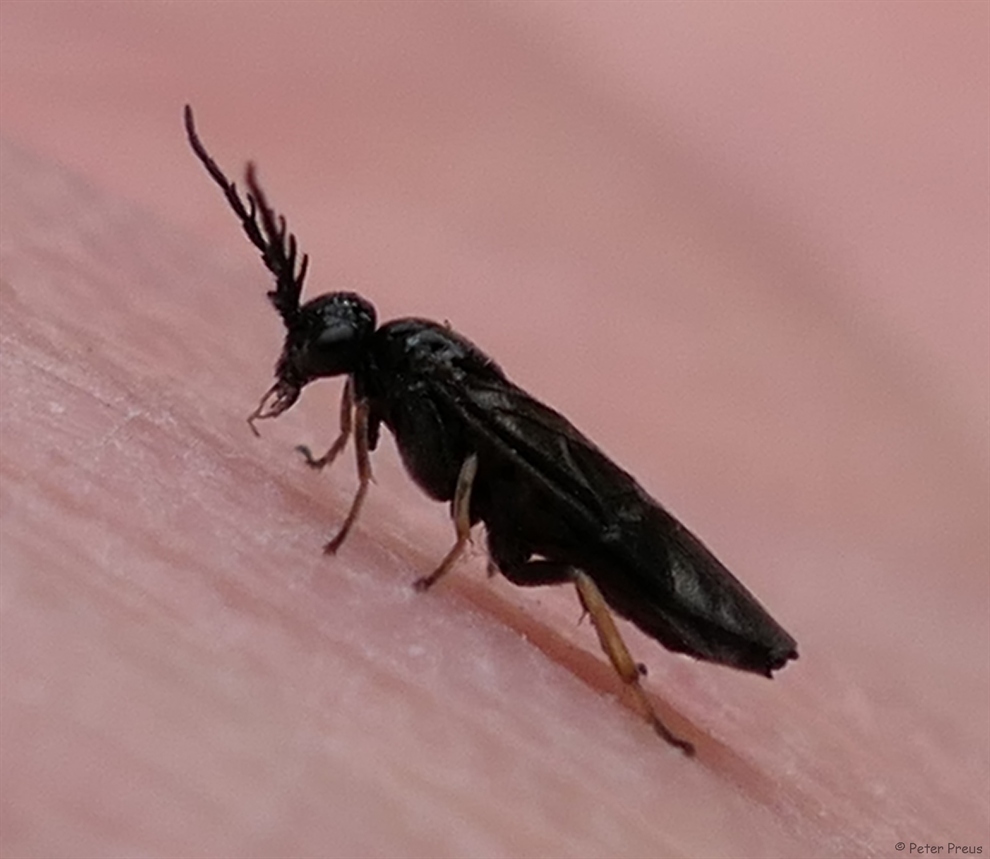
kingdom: Animalia
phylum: Arthropoda
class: Insecta
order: Hymenoptera
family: Tenthredinidae
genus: Cladius
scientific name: Cladius pectinicornis
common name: Sawfly
